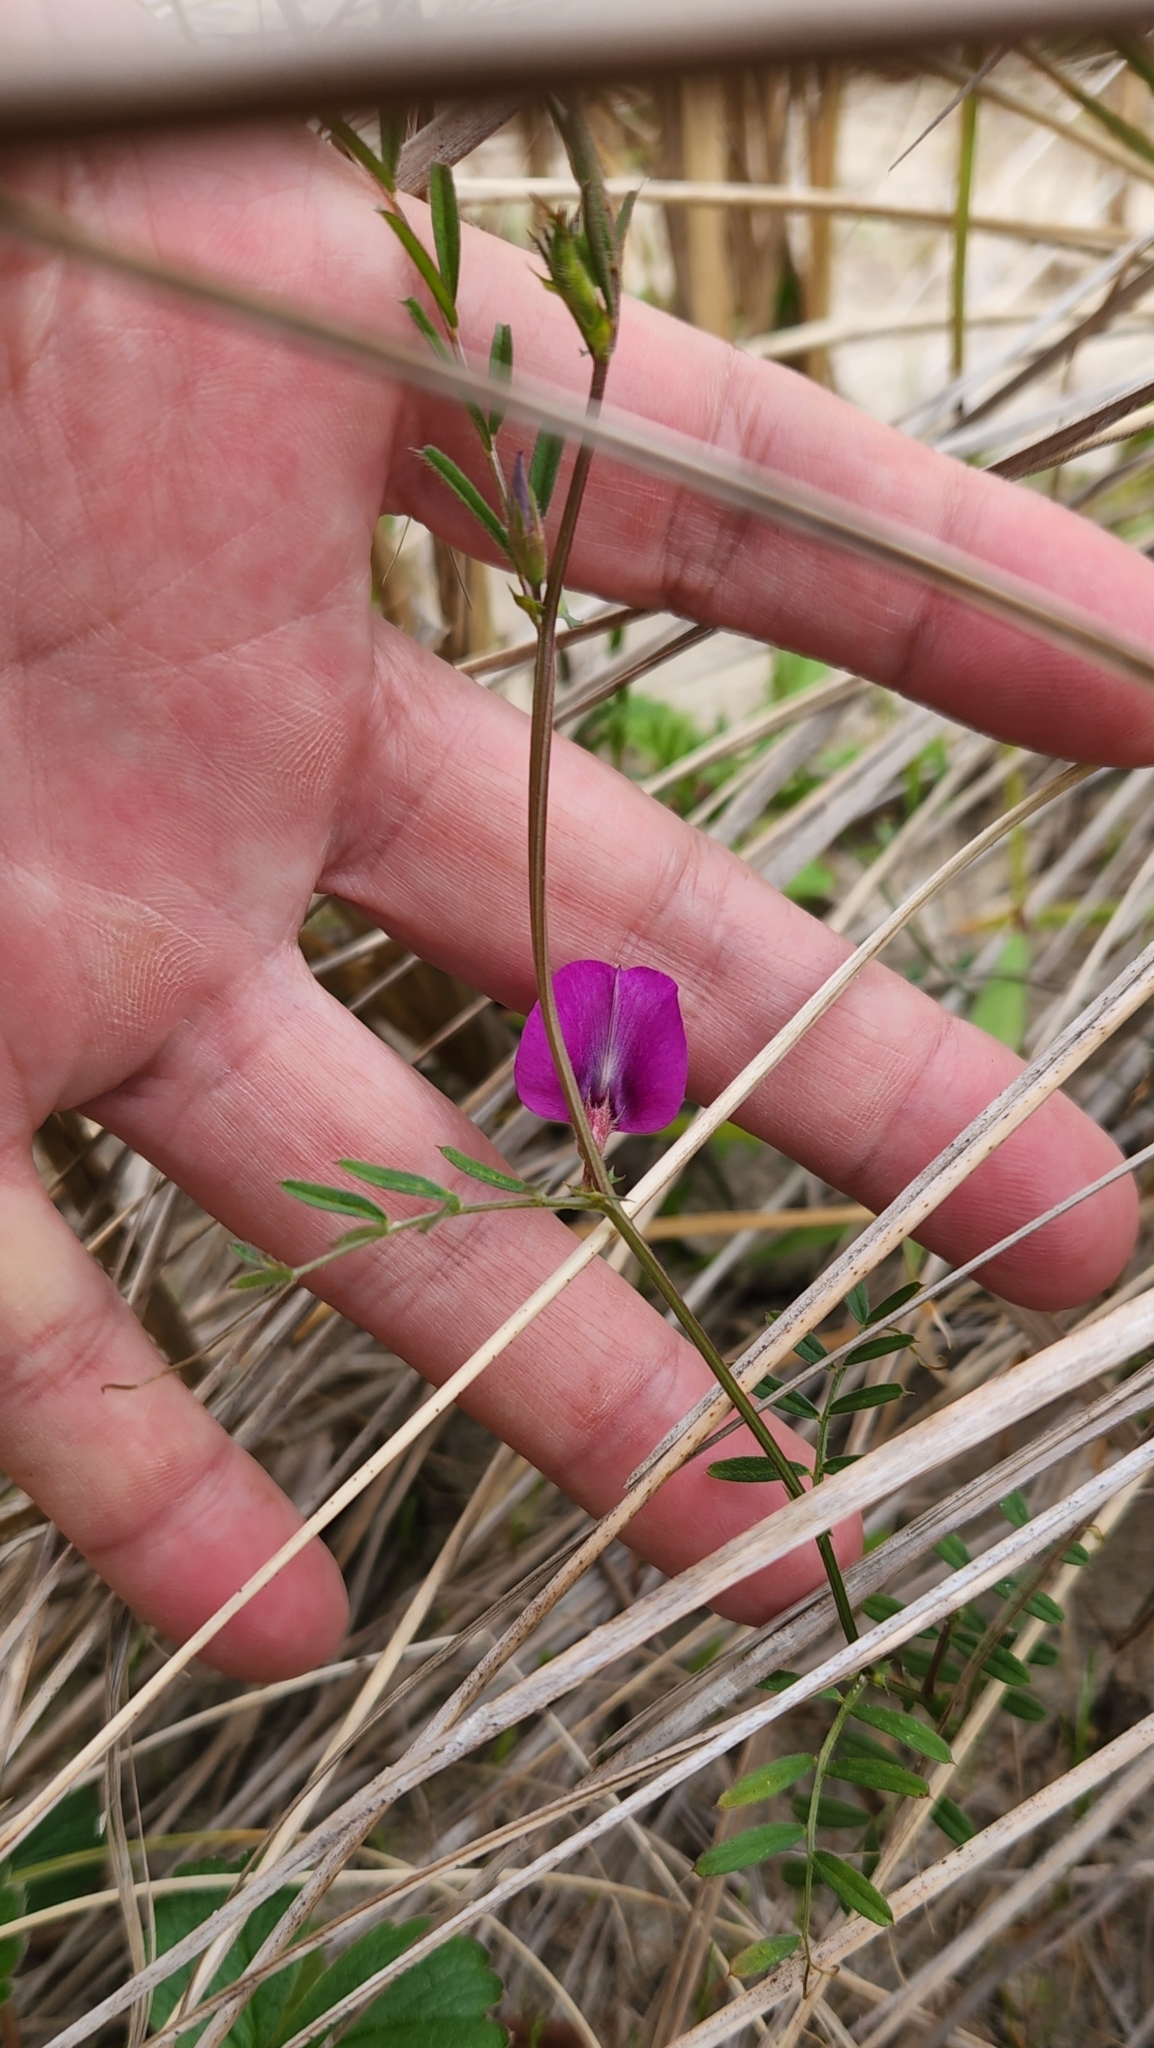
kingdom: Plantae
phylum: Tracheophyta
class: Magnoliopsida
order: Fabales
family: Fabaceae
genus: Vicia
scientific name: Vicia sativa
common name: Garden vetch
